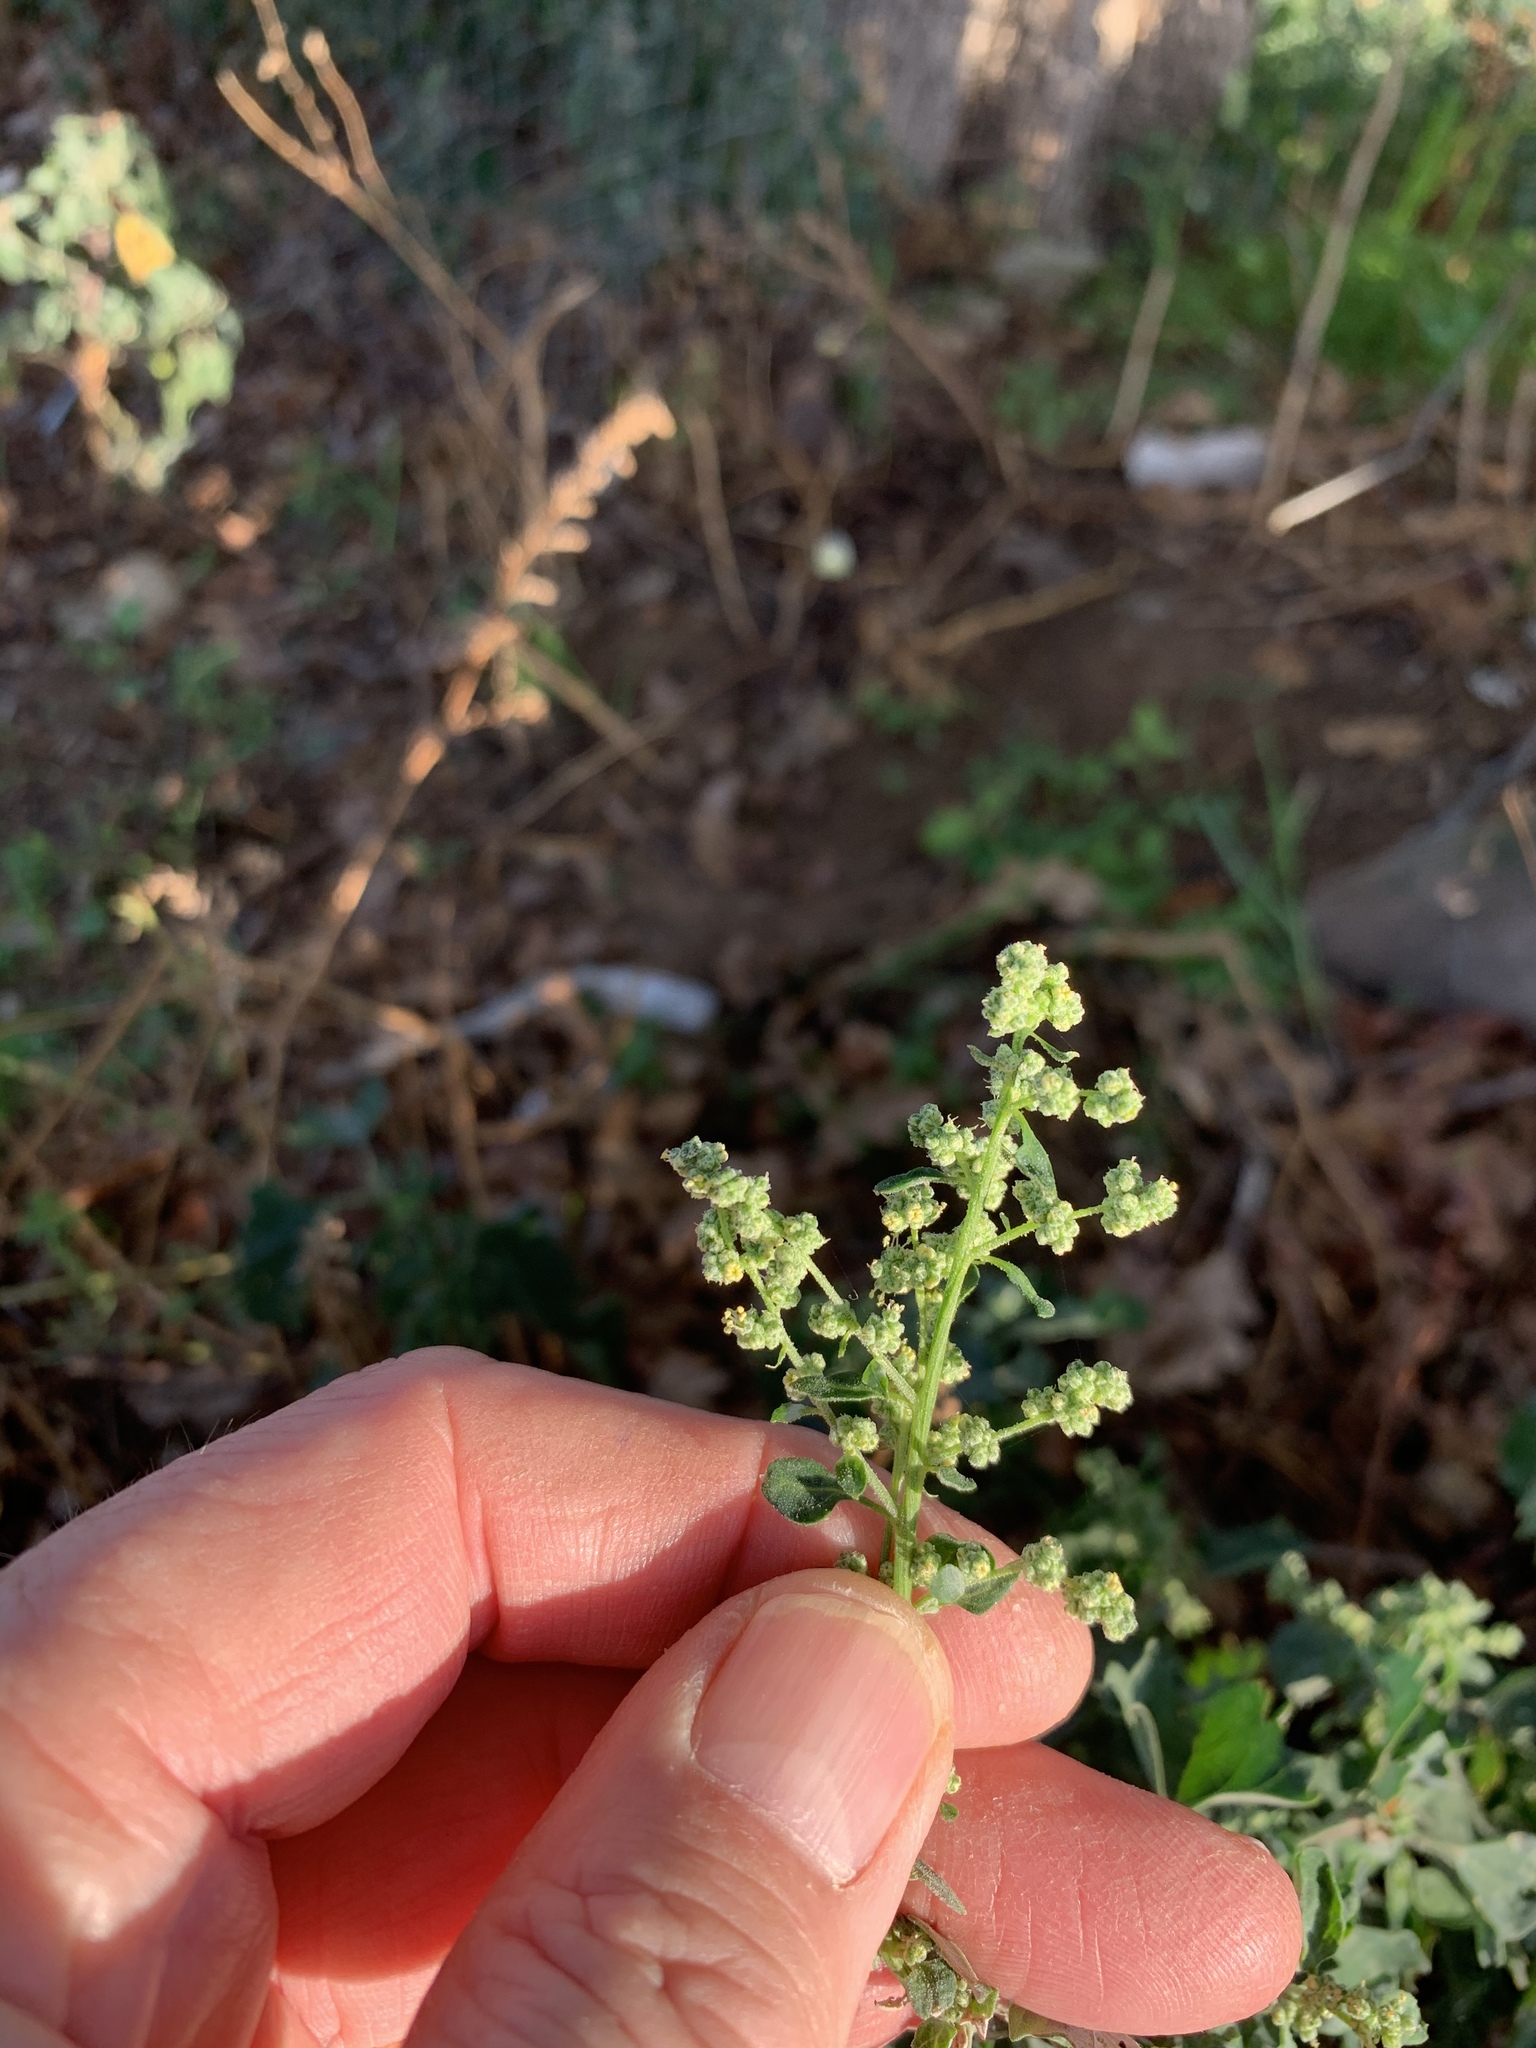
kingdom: Plantae
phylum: Tracheophyta
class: Magnoliopsida
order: Caryophyllales
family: Amaranthaceae
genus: Chenopodium
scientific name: Chenopodium album
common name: Fat-hen
